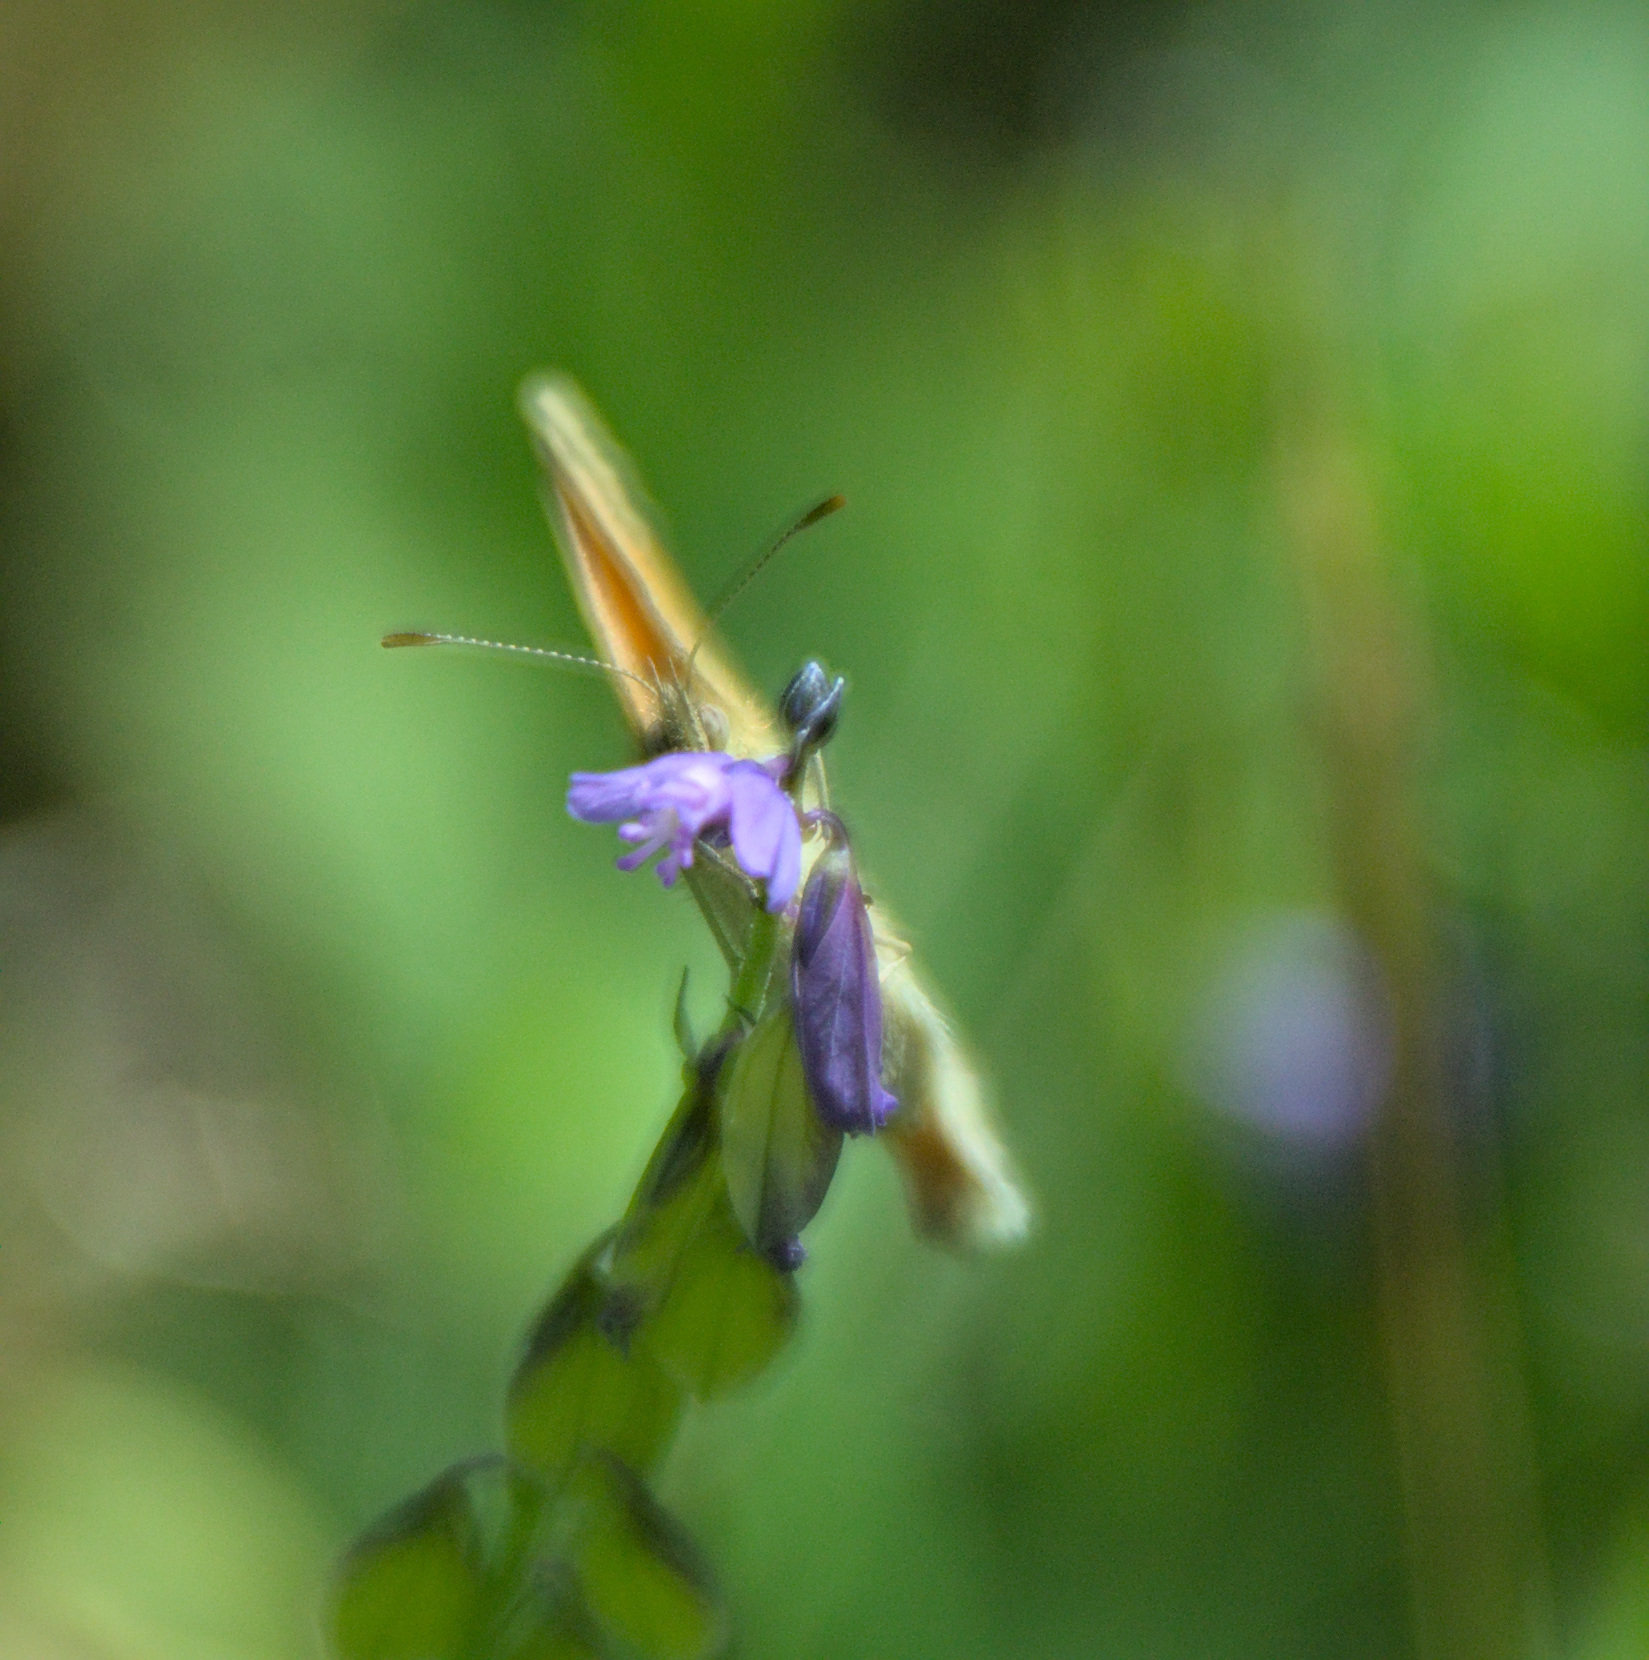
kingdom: Animalia
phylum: Arthropoda
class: Insecta
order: Lepidoptera
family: Nymphalidae
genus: Coenonympha
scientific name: Coenonympha pamphilus
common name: Small heath
